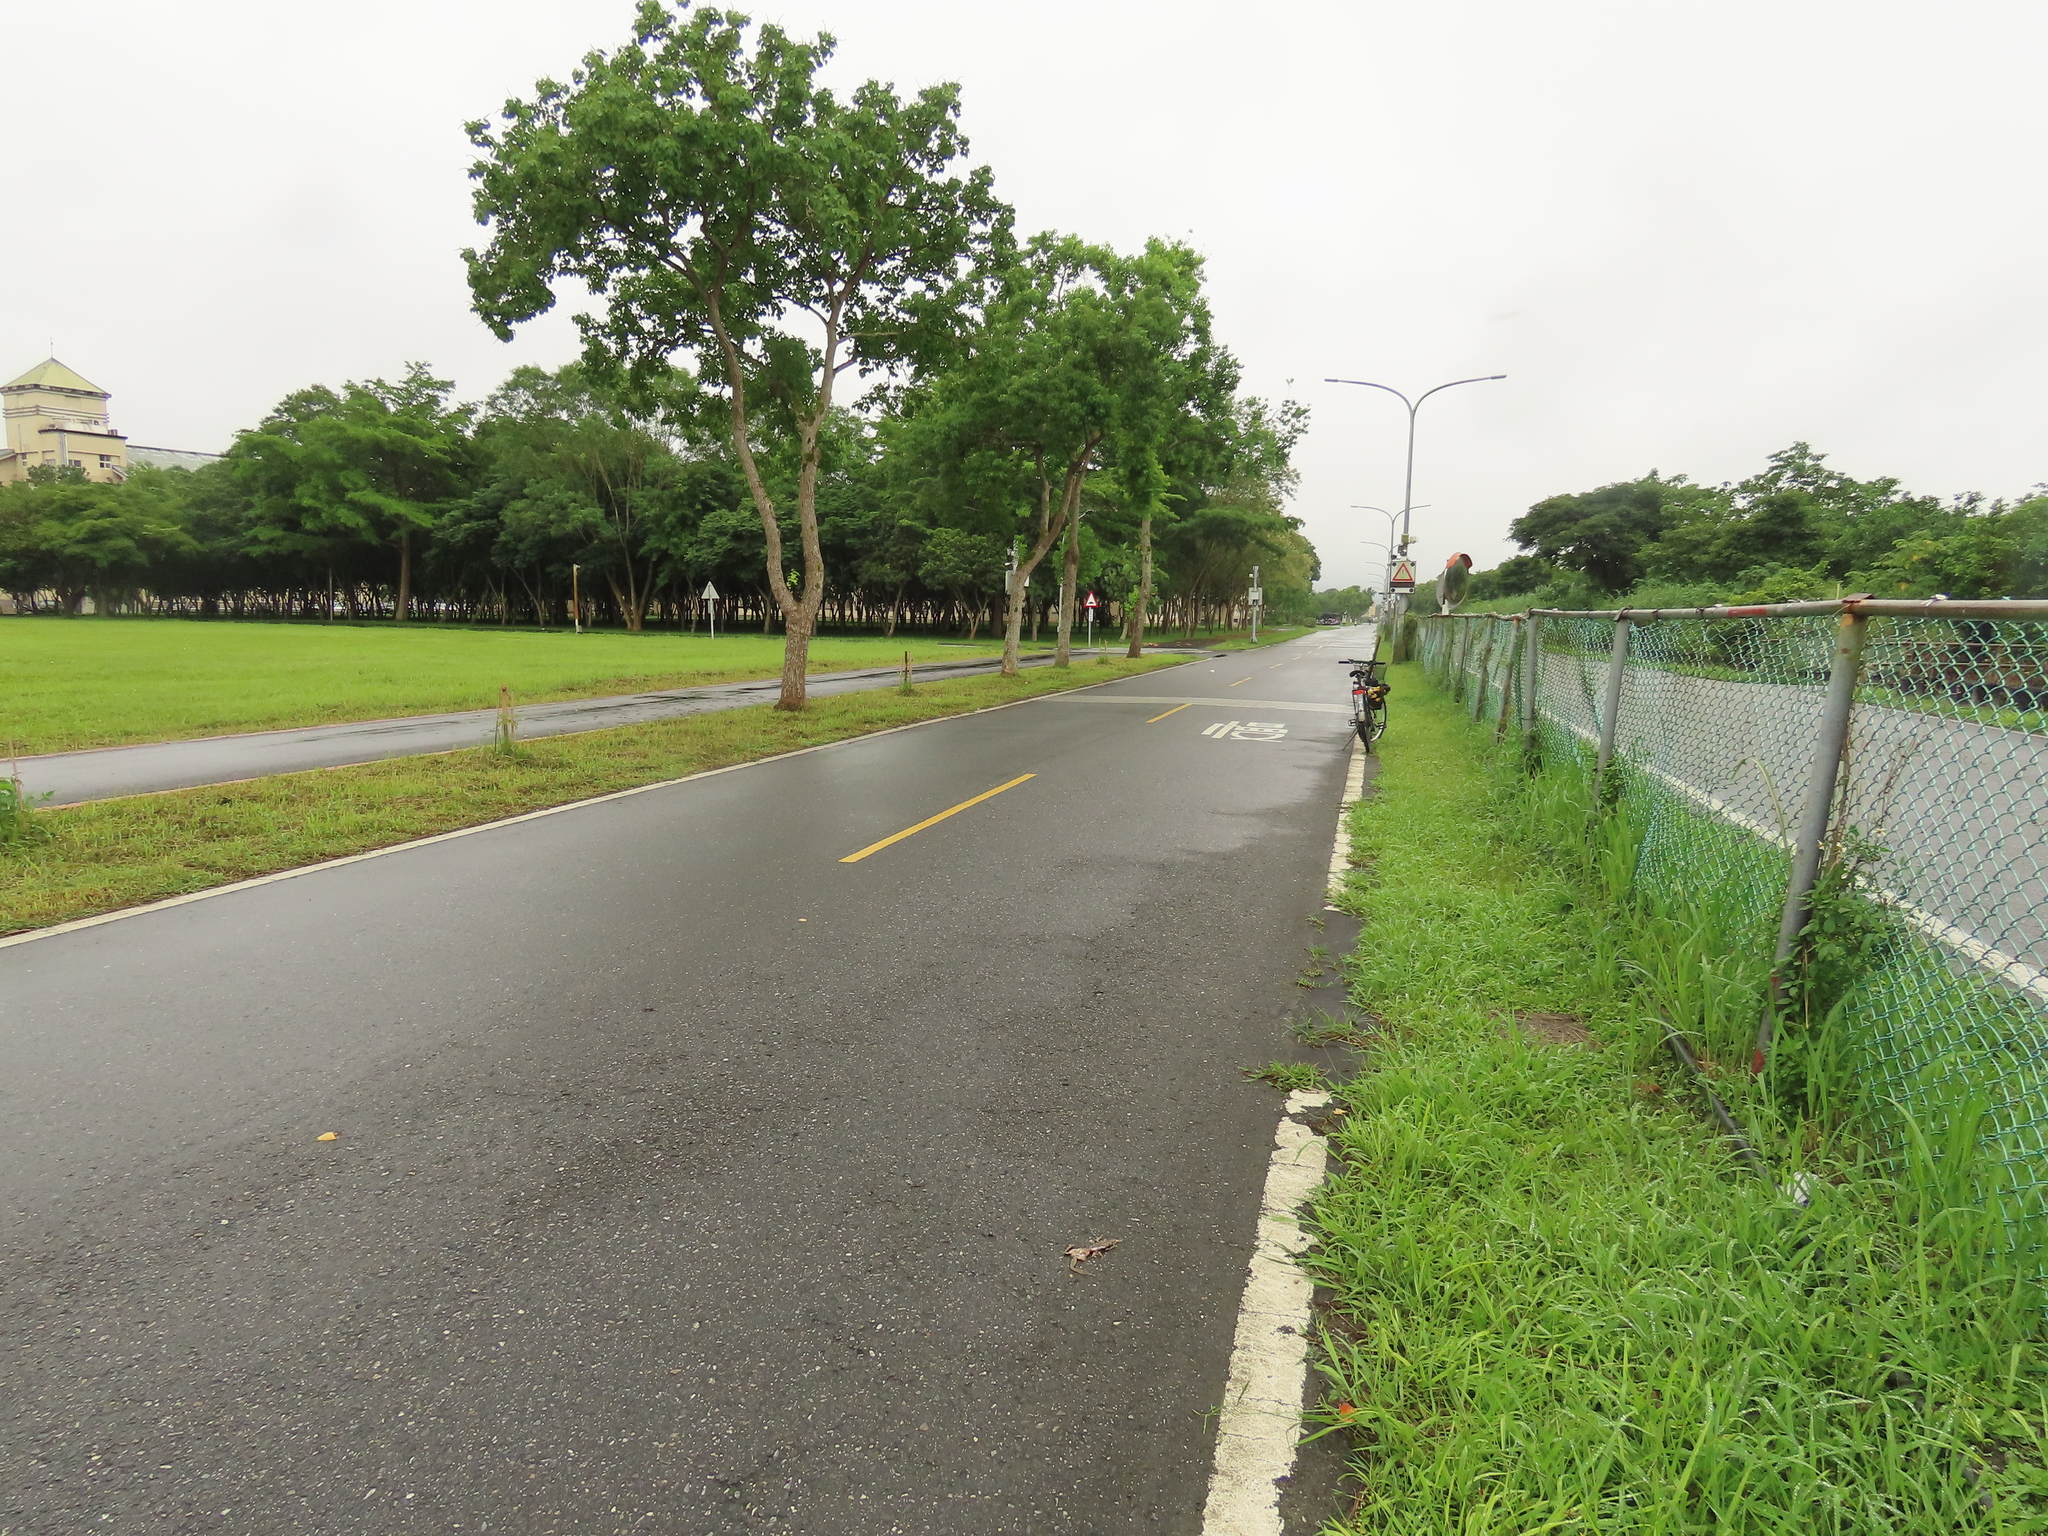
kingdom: Animalia
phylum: Chordata
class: Amphibia
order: Anura
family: Ranidae
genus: Sylvirana
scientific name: Sylvirana guentheri
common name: Guenther's amoy frog
